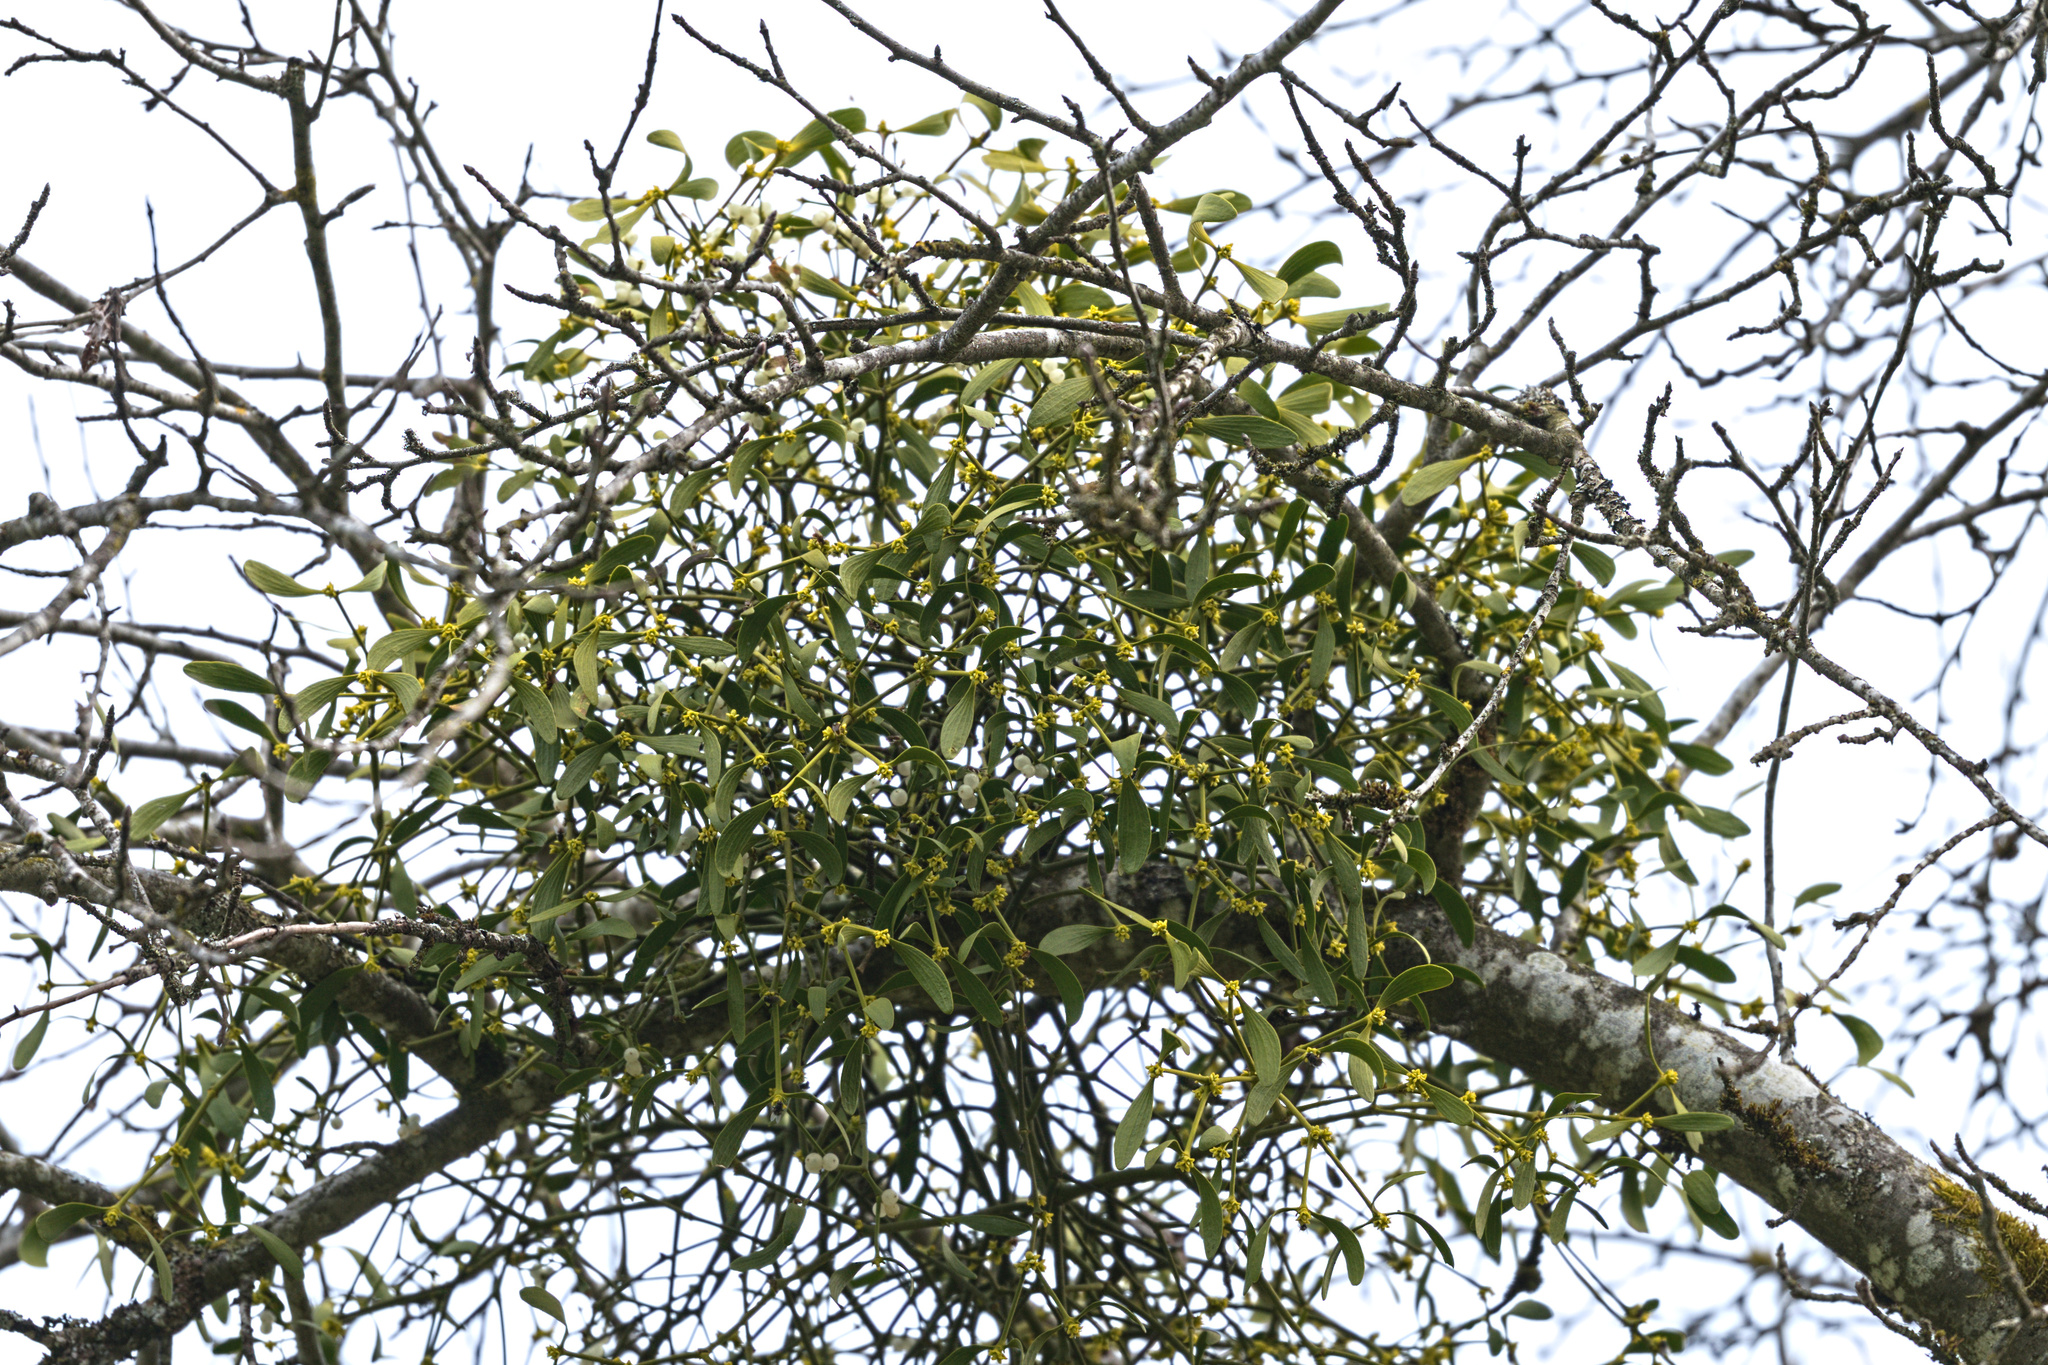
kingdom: Plantae
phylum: Tracheophyta
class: Magnoliopsida
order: Santalales
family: Viscaceae
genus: Viscum
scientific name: Viscum album
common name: Mistletoe
